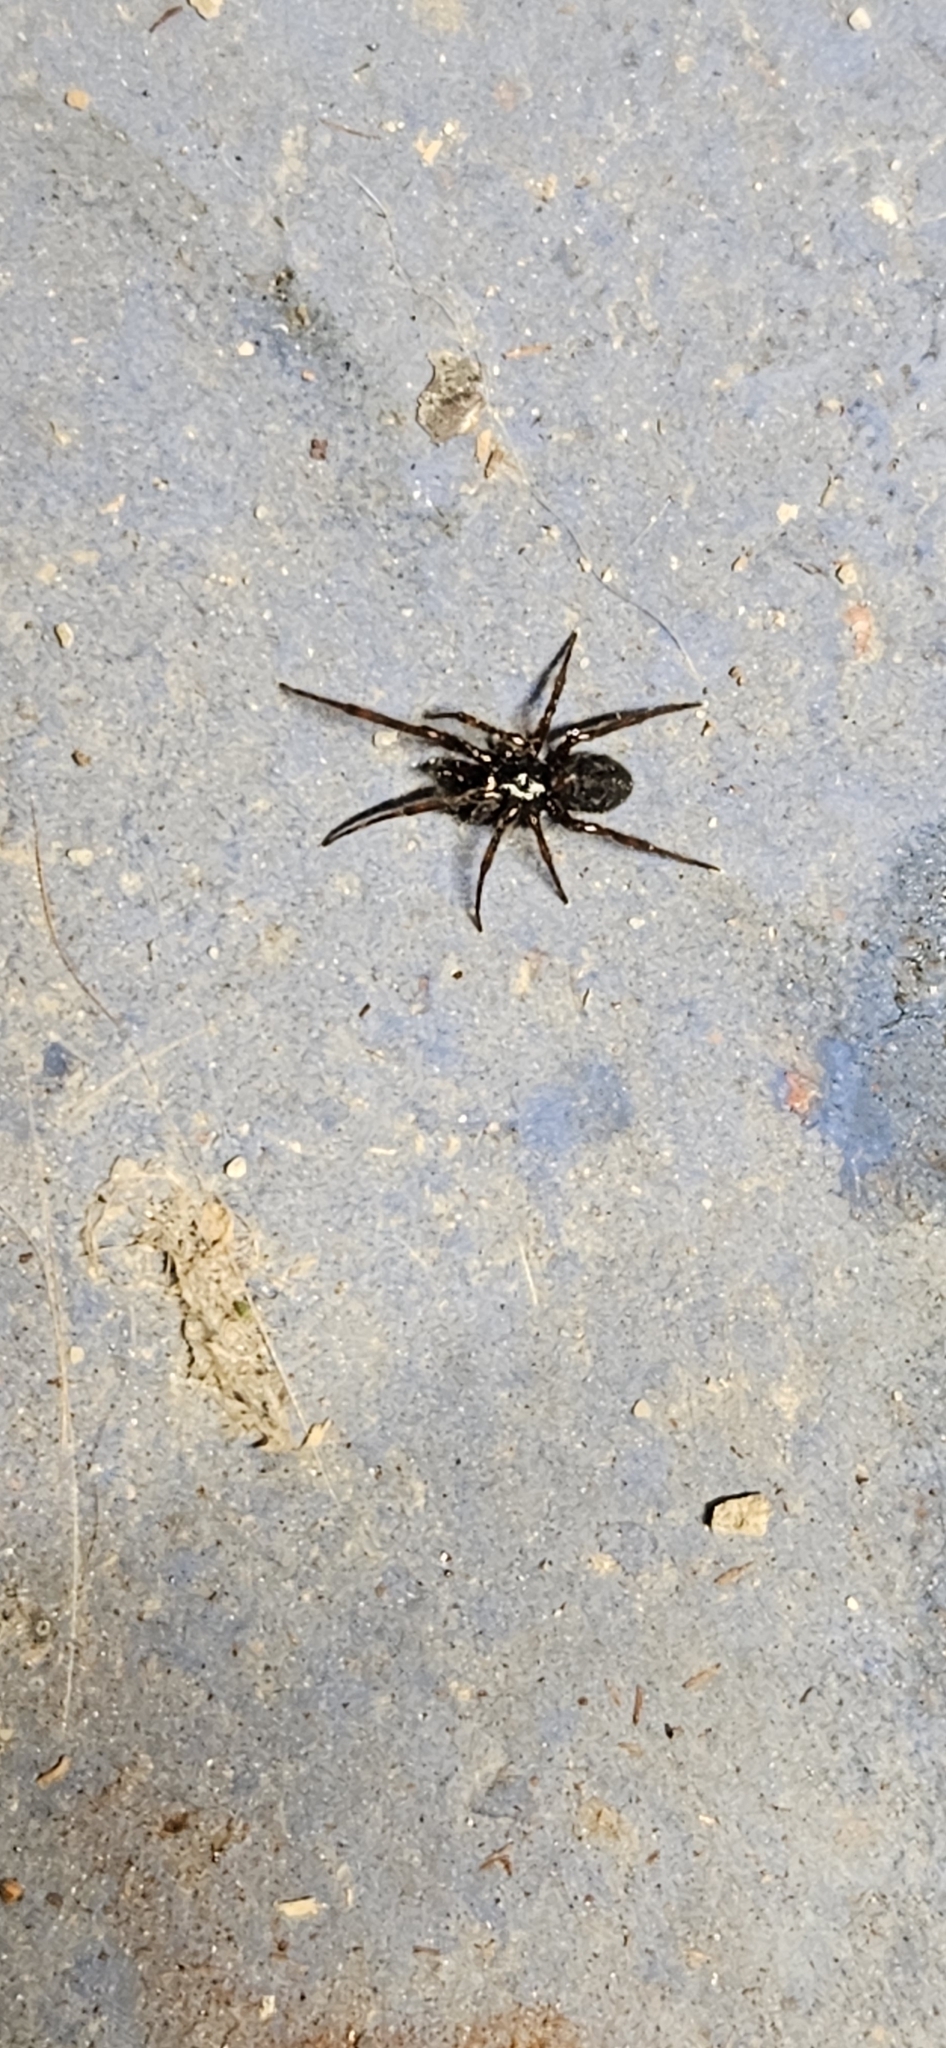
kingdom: Animalia
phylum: Arthropoda
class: Arachnida
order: Araneae
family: Theridiidae
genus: Steatoda
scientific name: Steatoda borealis
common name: Boreal combfoot
